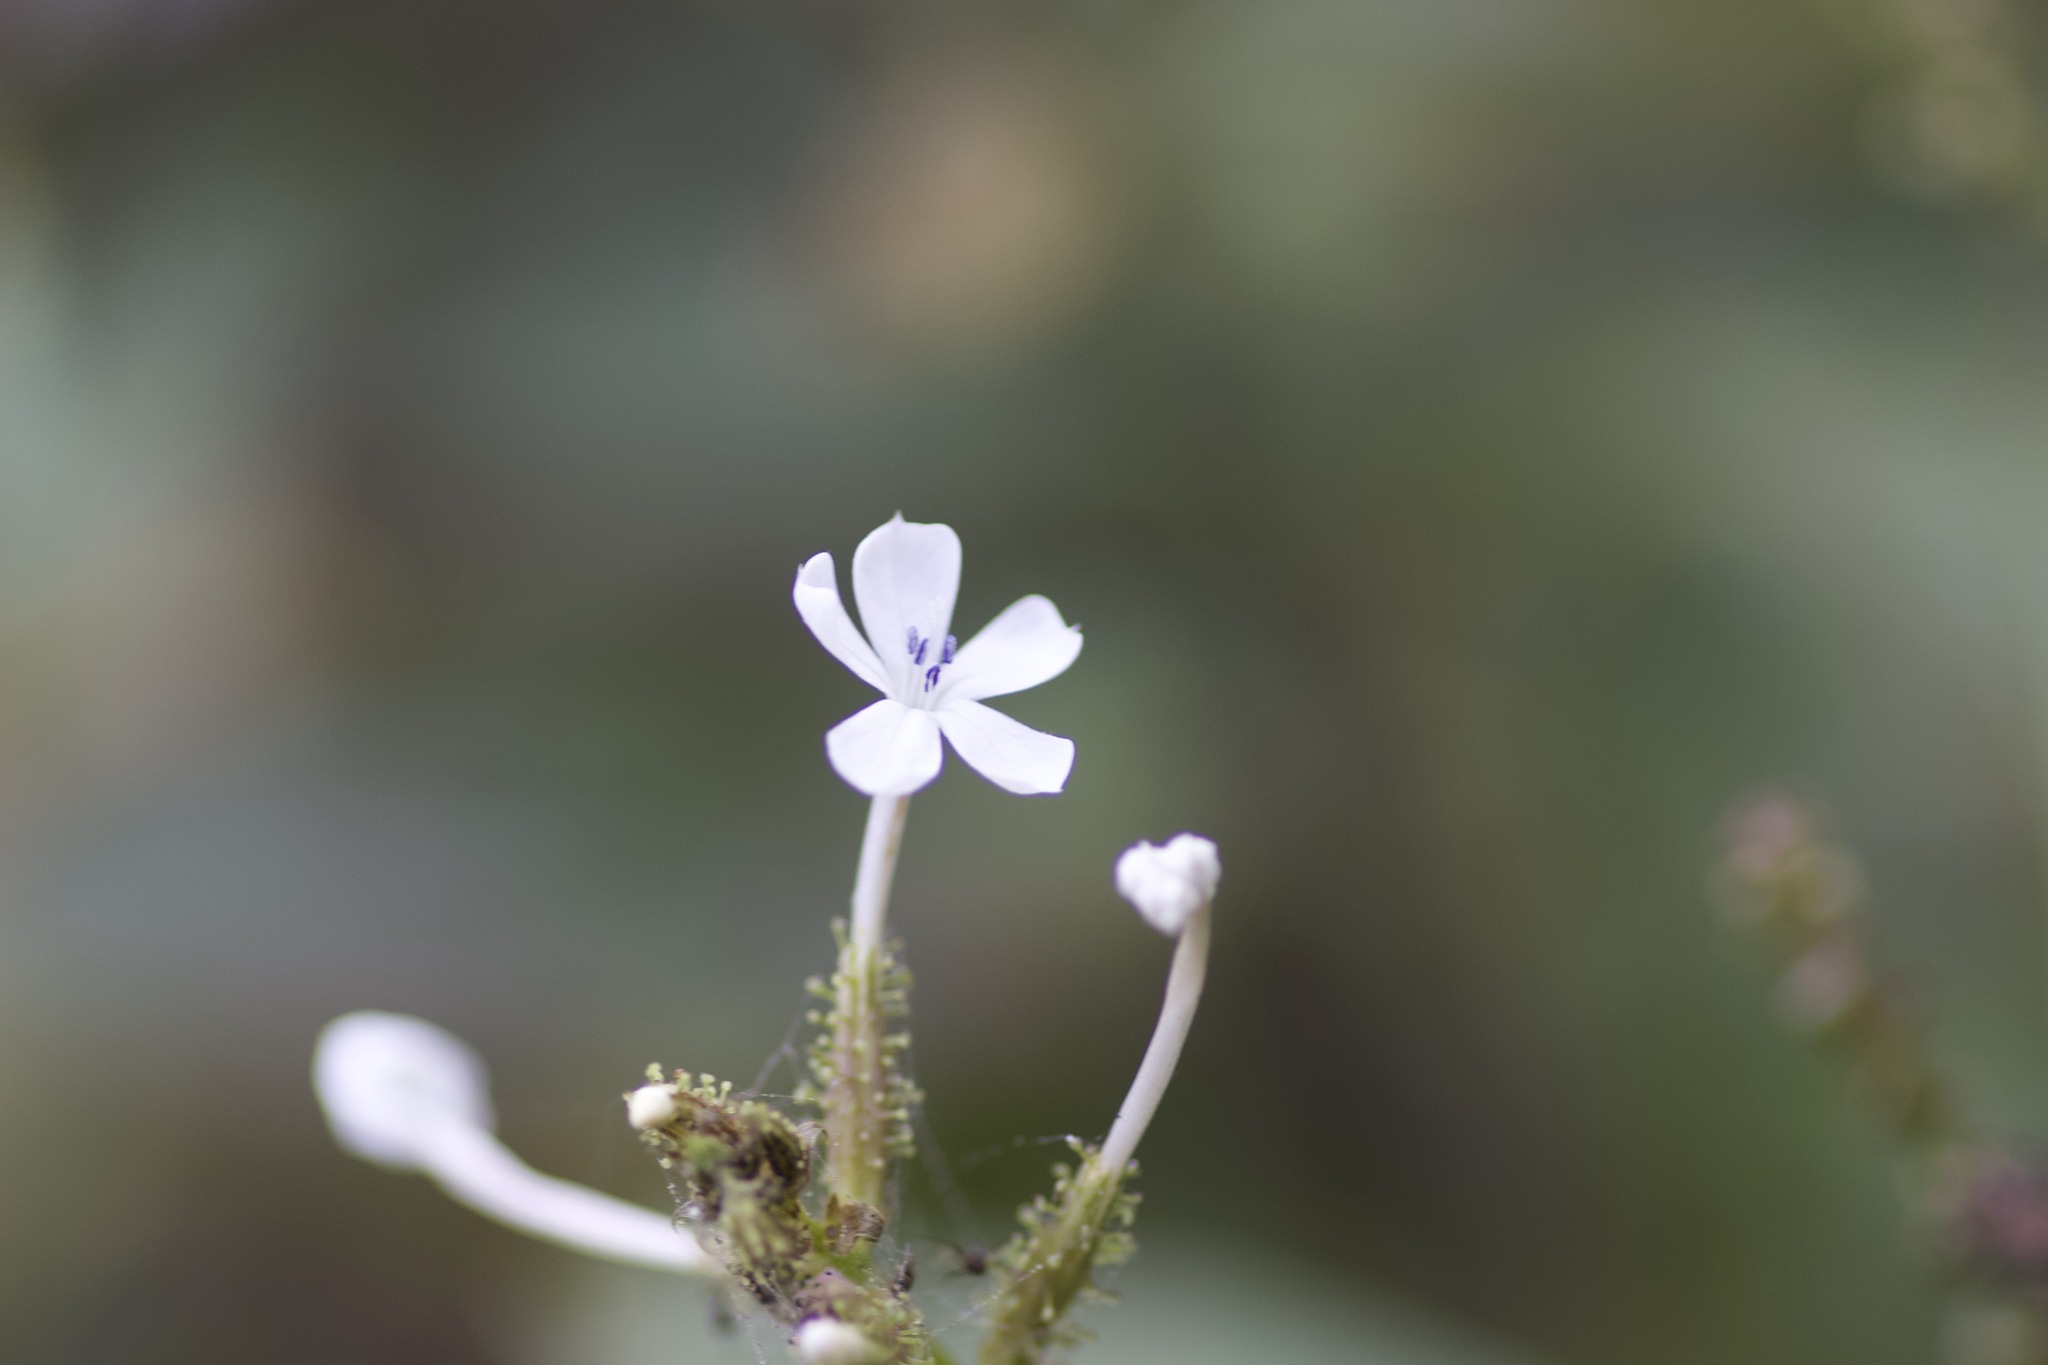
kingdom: Plantae
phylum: Tracheophyta
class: Magnoliopsida
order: Caryophyllales
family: Plumbaginaceae
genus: Plumbago
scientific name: Plumbago zeylanica
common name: Doctorbush
